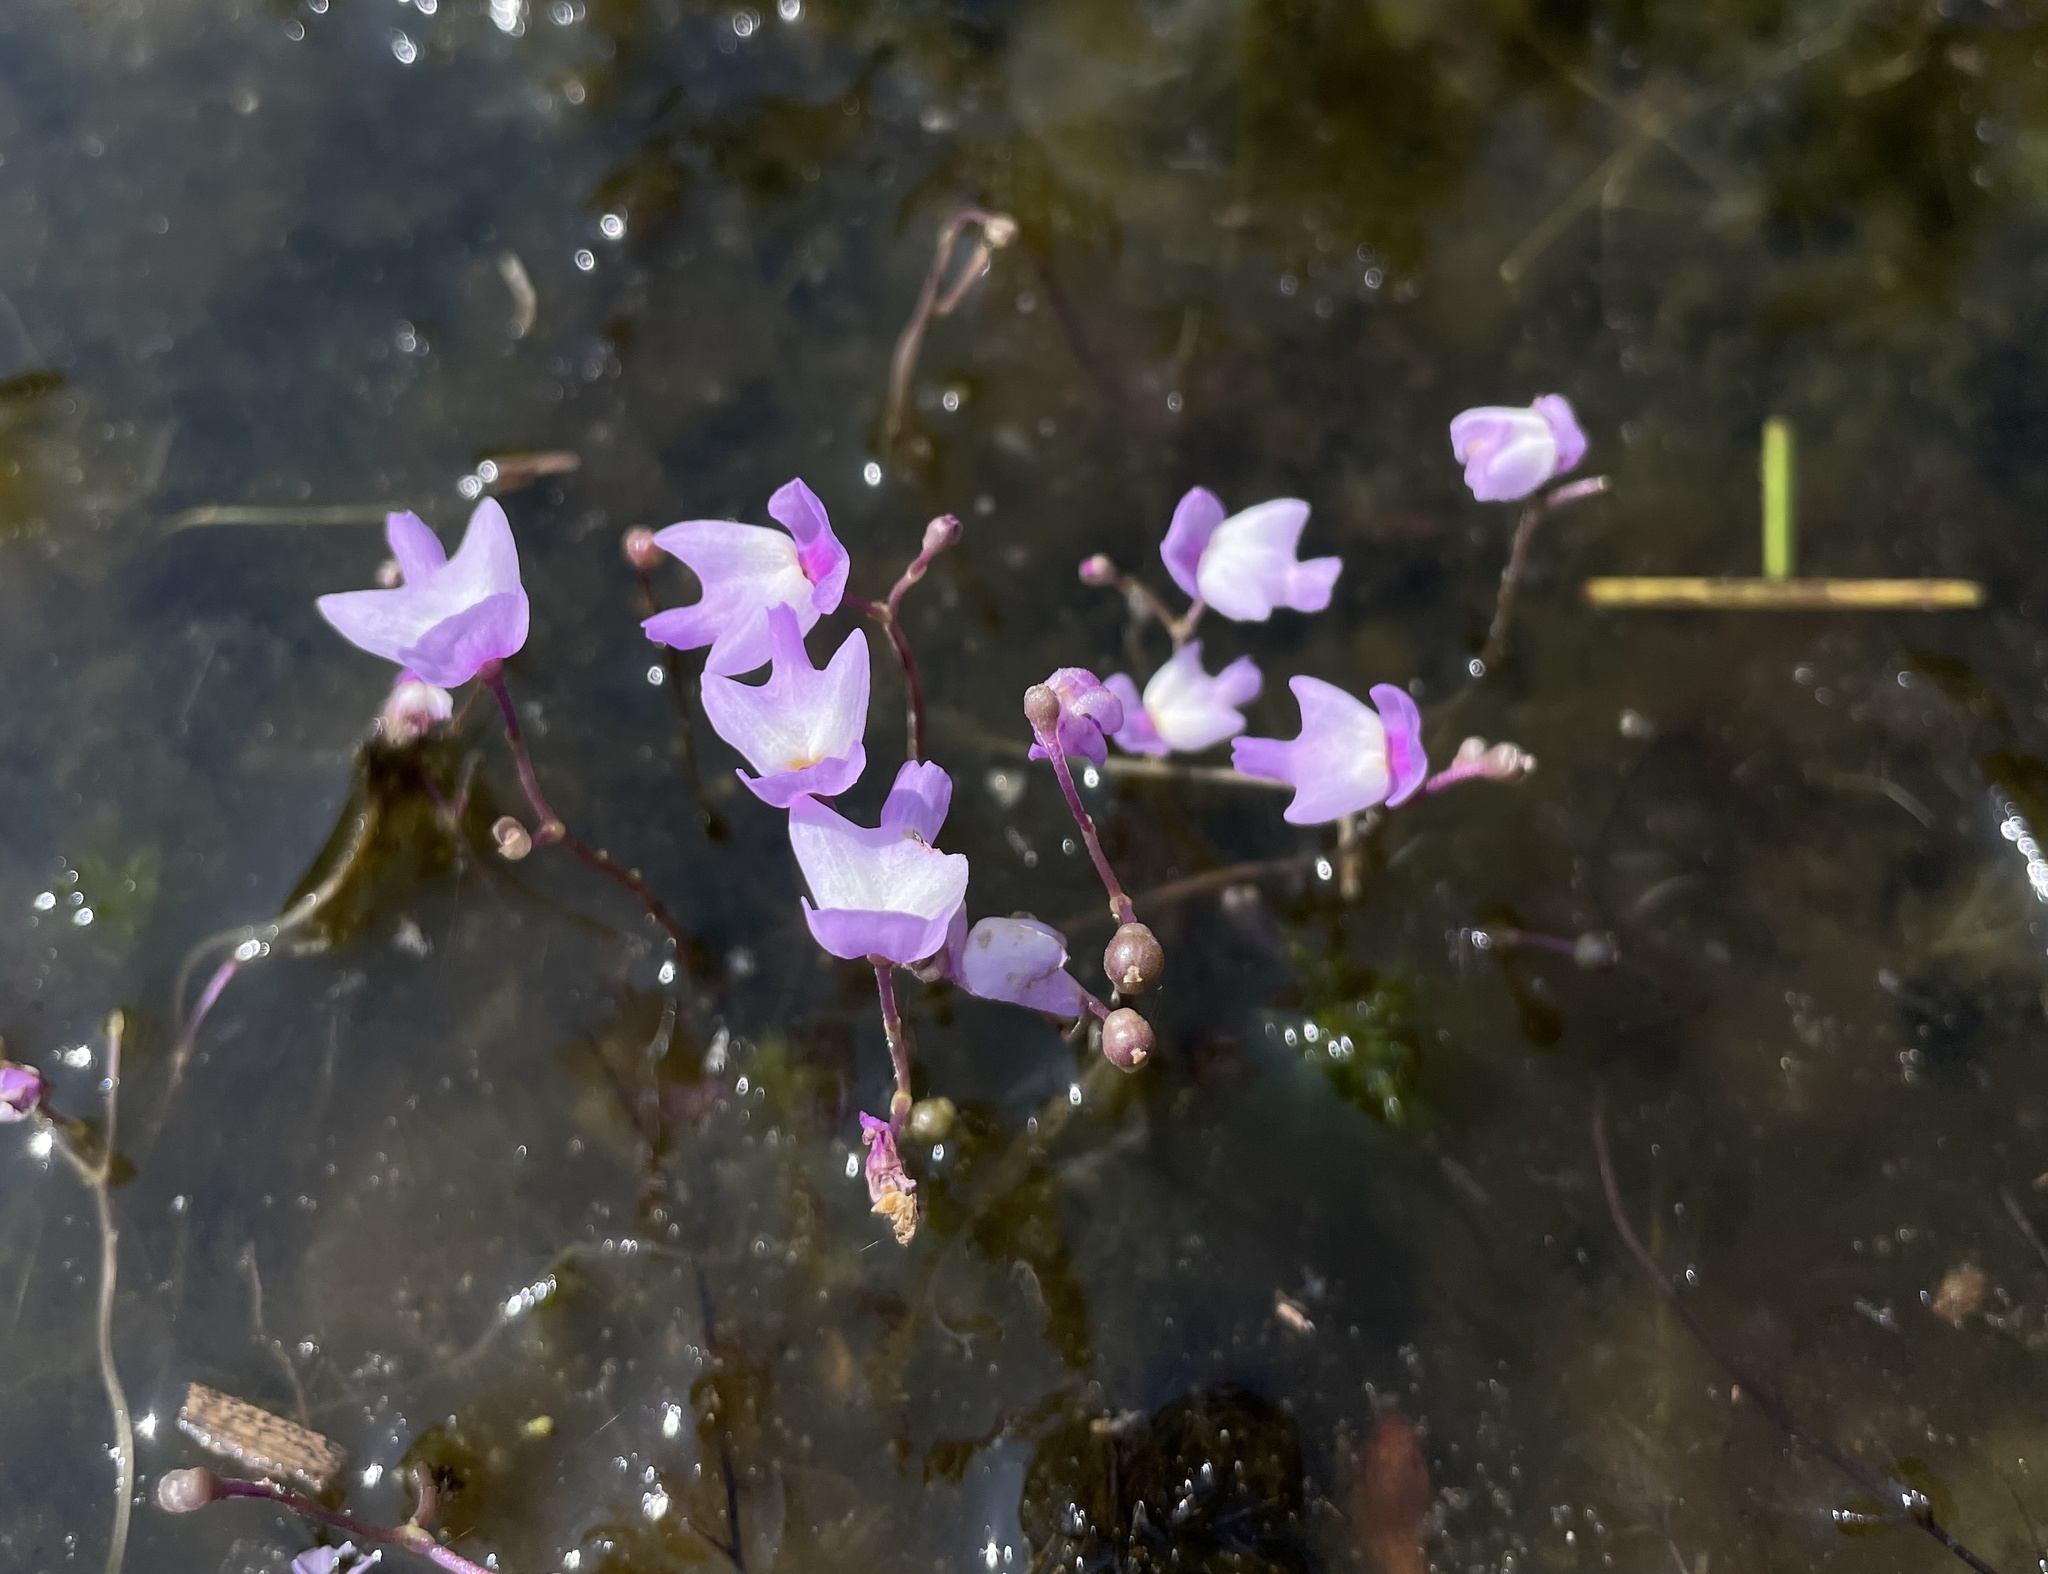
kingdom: Plantae
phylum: Tracheophyta
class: Magnoliopsida
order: Lamiales
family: Lentibulariaceae
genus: Utricularia
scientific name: Utricularia purpurea
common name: Eastern purple bladderwort
